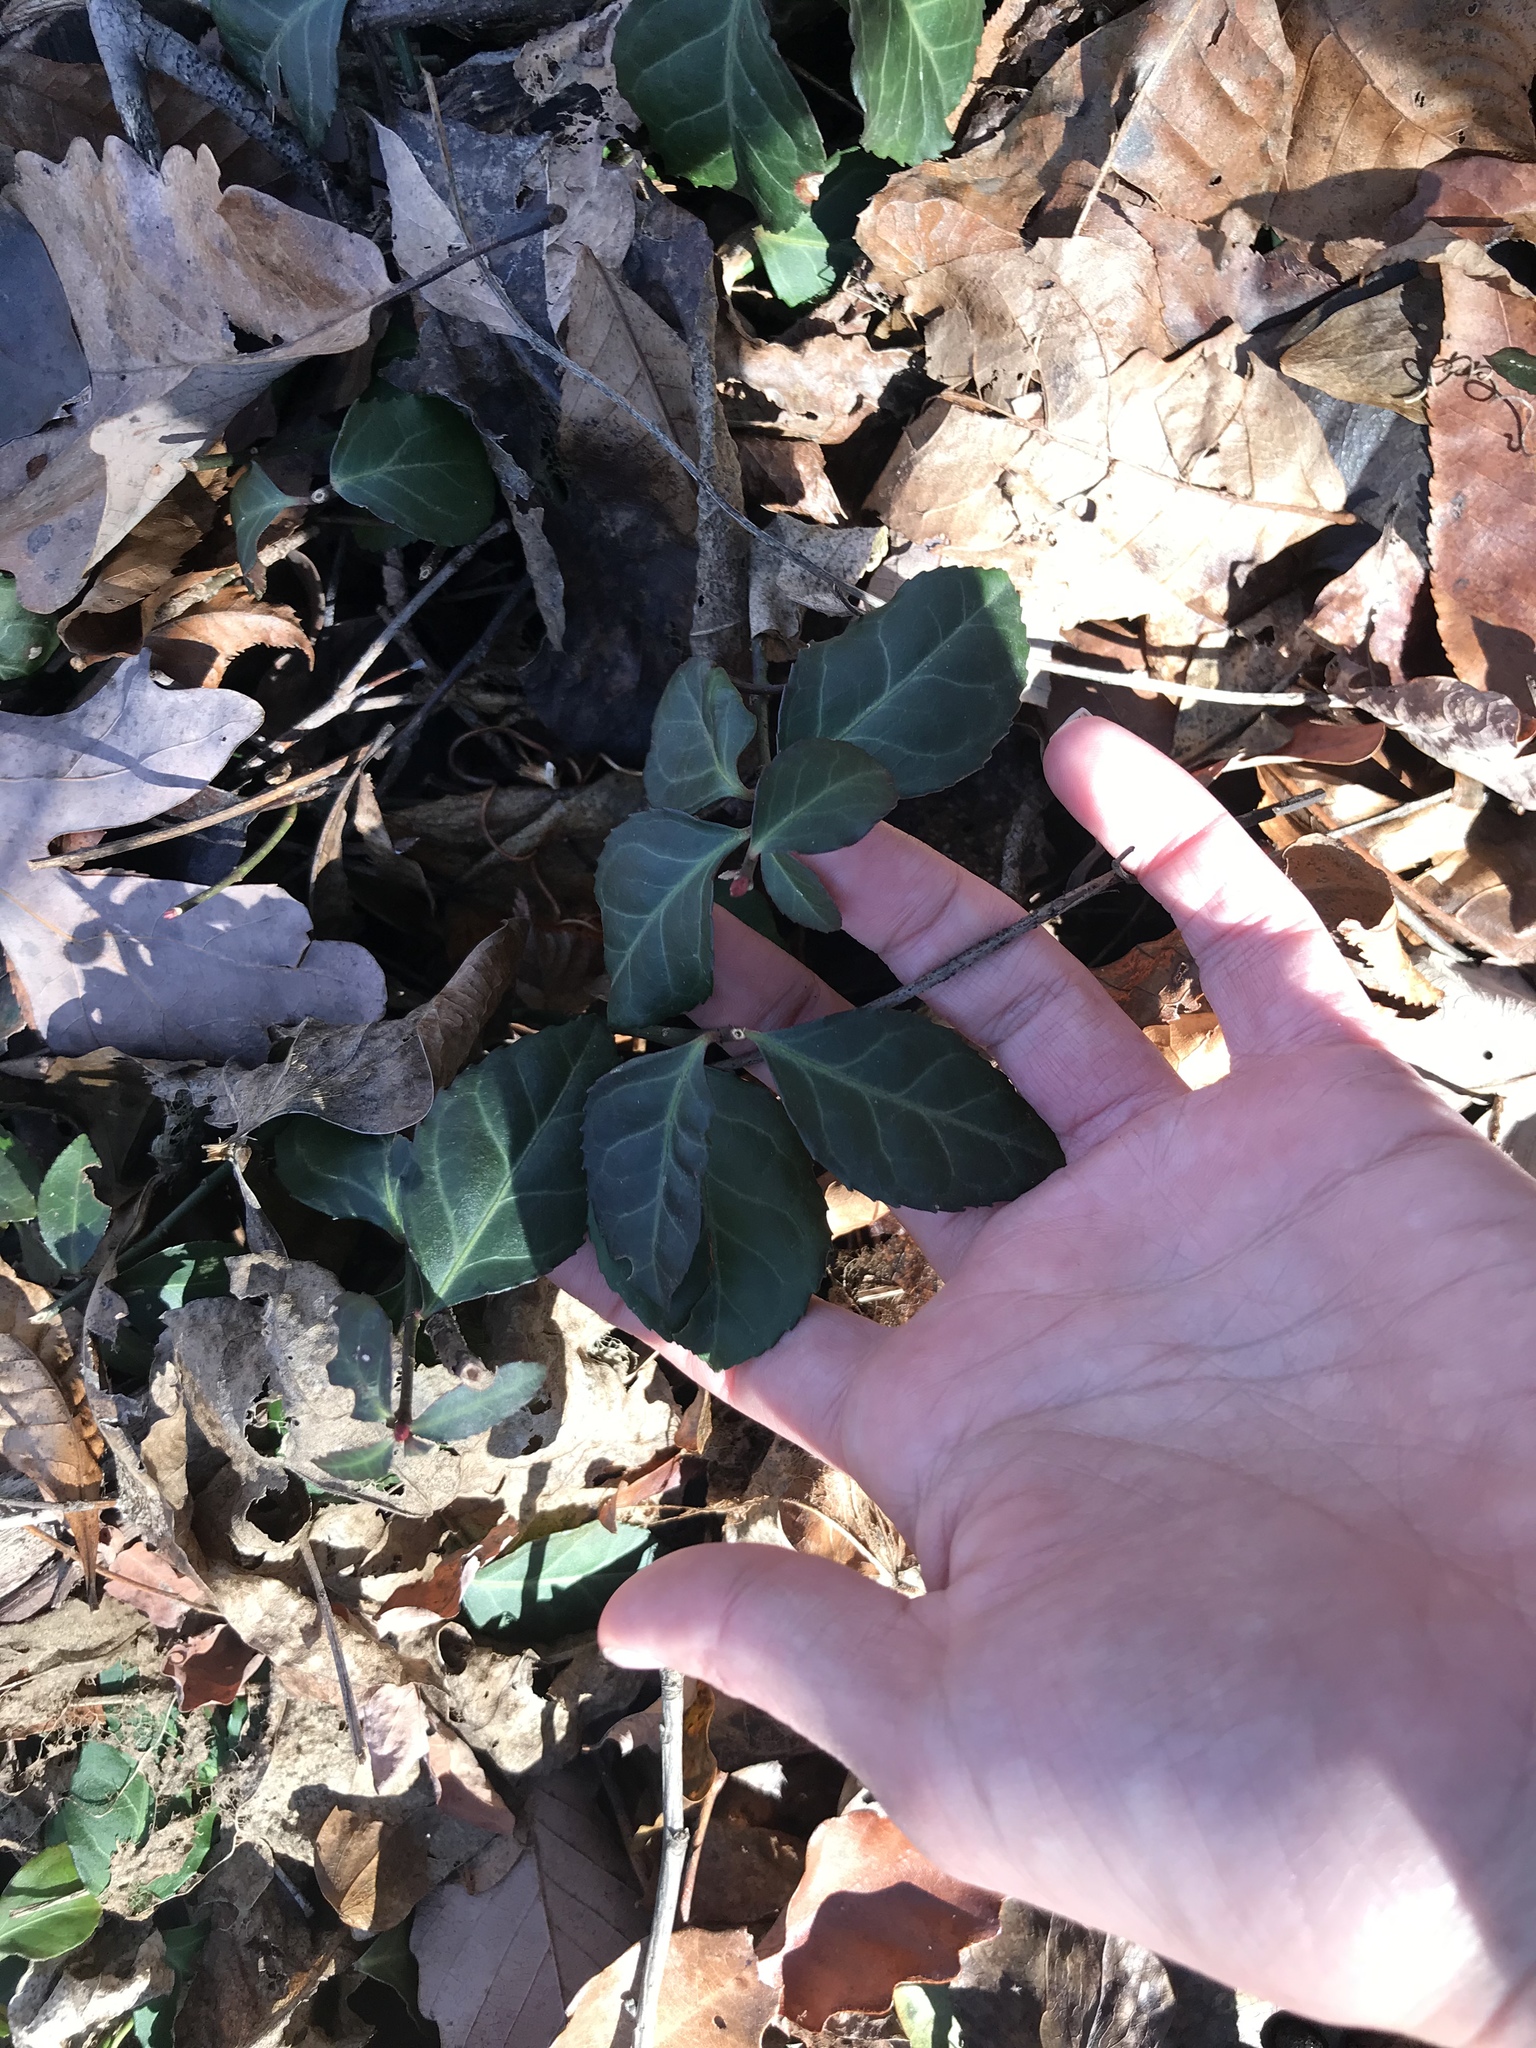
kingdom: Plantae
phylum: Tracheophyta
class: Magnoliopsida
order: Celastrales
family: Celastraceae
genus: Euonymus
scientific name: Euonymus fortunei
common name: Climbing euonymus
